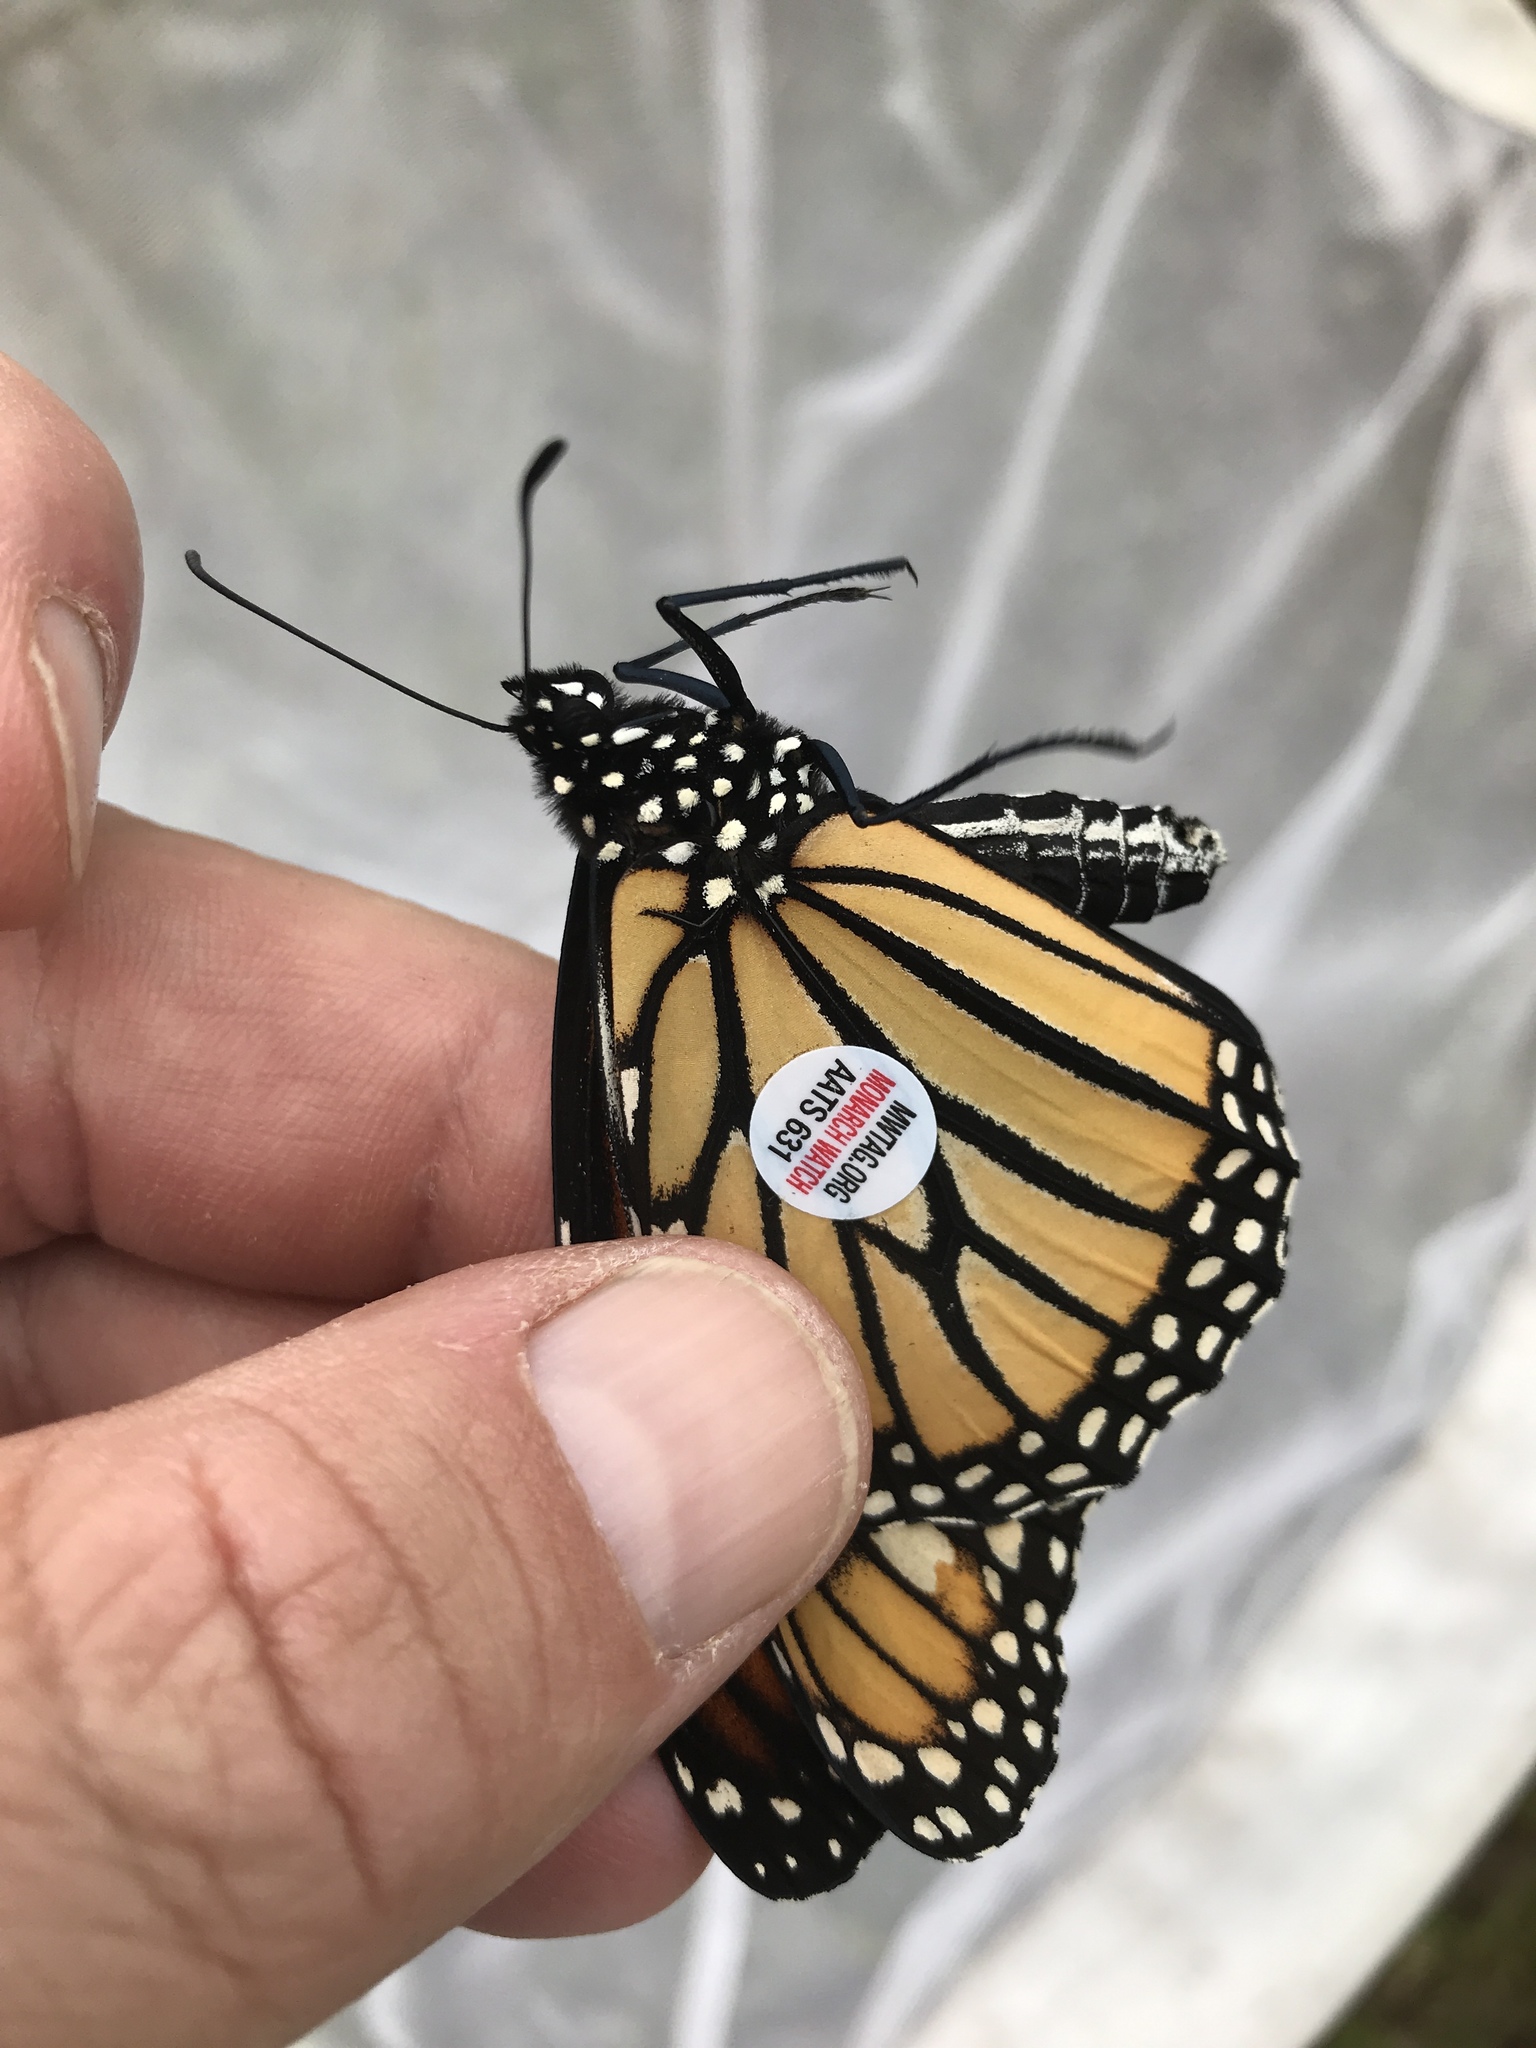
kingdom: Animalia
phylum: Arthropoda
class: Insecta
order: Lepidoptera
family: Nymphalidae
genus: Danaus
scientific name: Danaus plexippus
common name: Monarch
